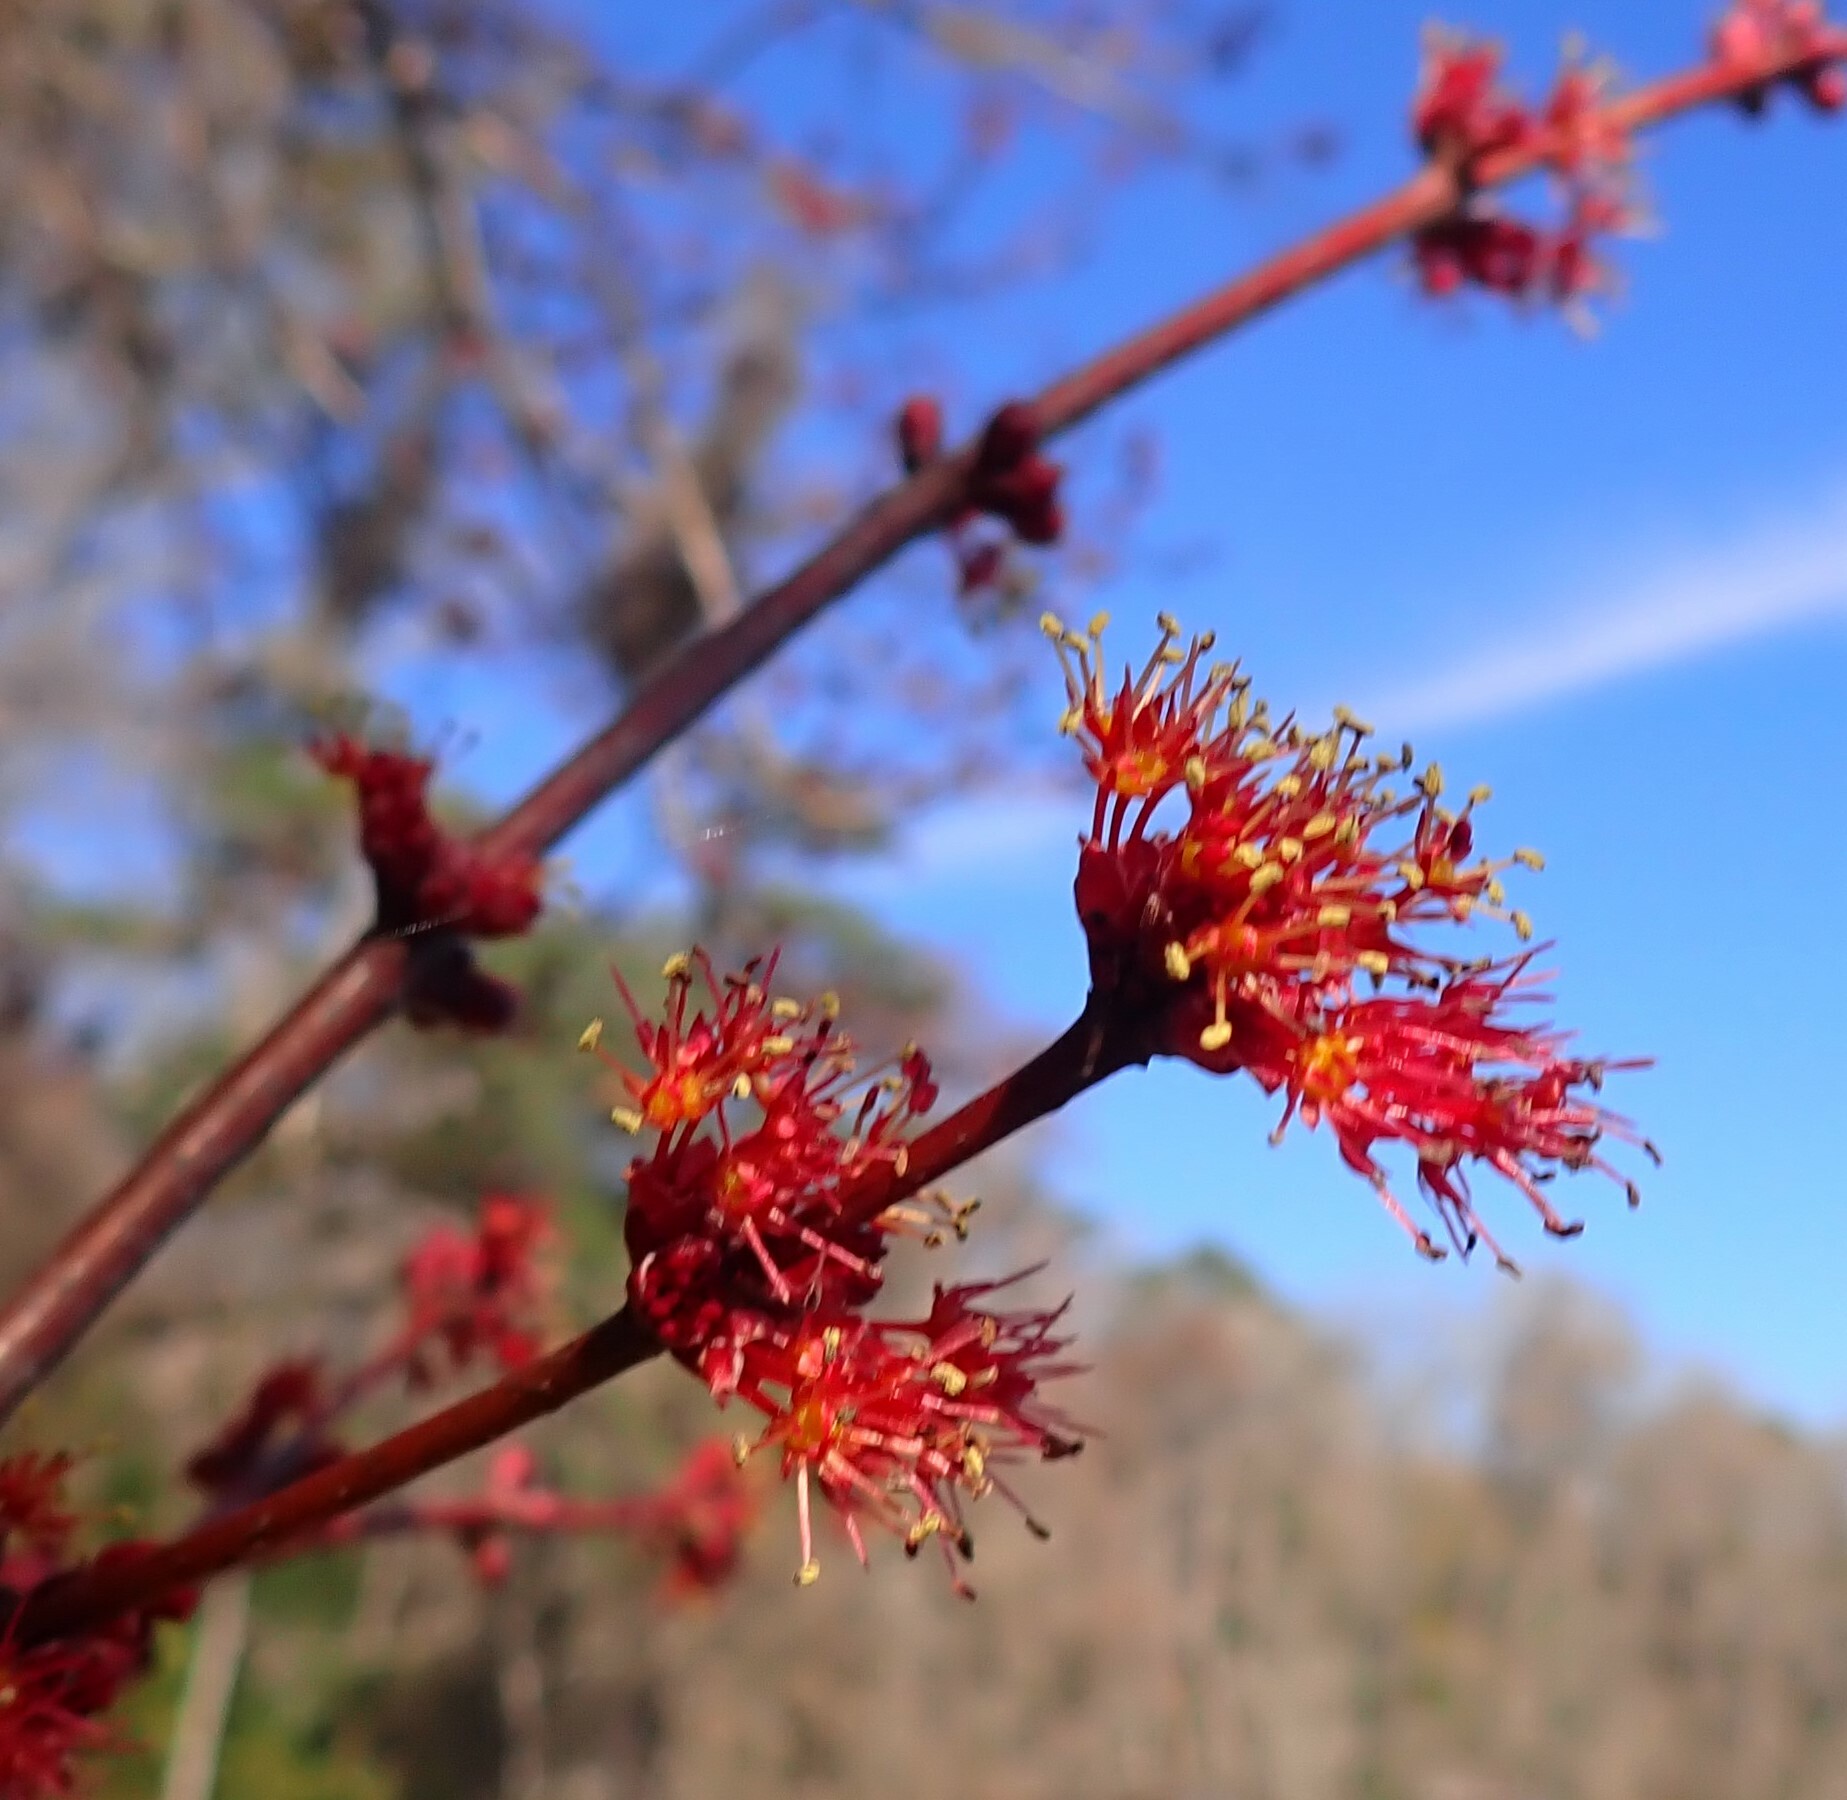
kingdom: Plantae
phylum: Tracheophyta
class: Magnoliopsida
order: Sapindales
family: Sapindaceae
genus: Acer
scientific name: Acer rubrum
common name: Red maple
